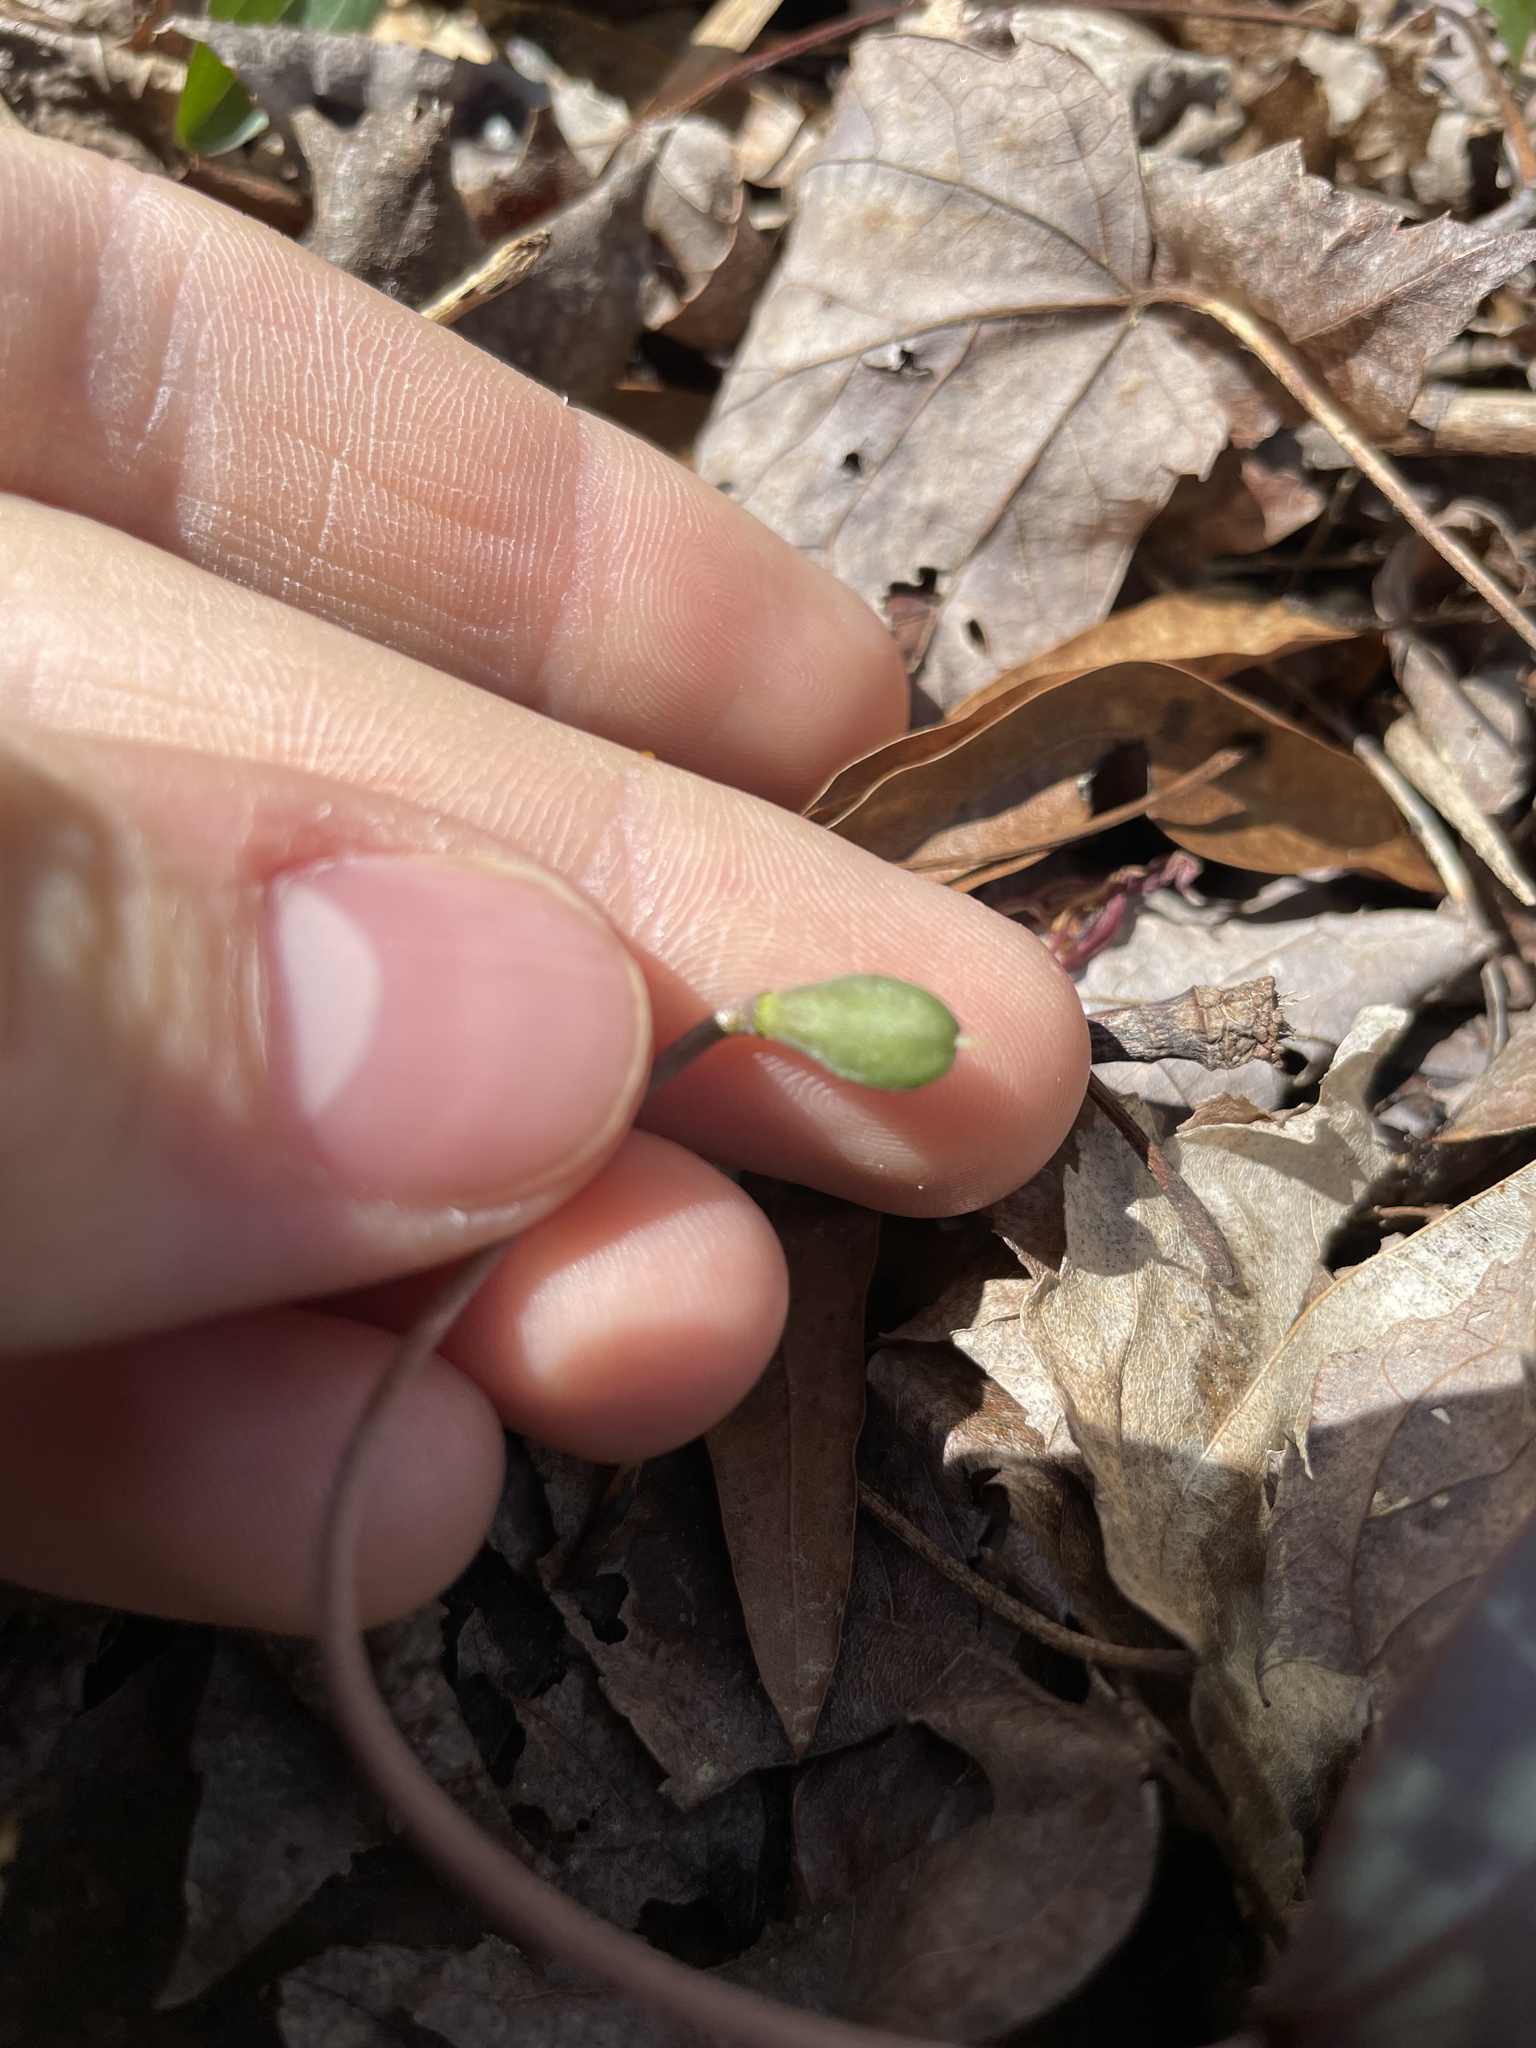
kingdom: Plantae
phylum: Tracheophyta
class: Liliopsida
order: Liliales
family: Liliaceae
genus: Erythronium
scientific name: Erythronium umbilicatum
